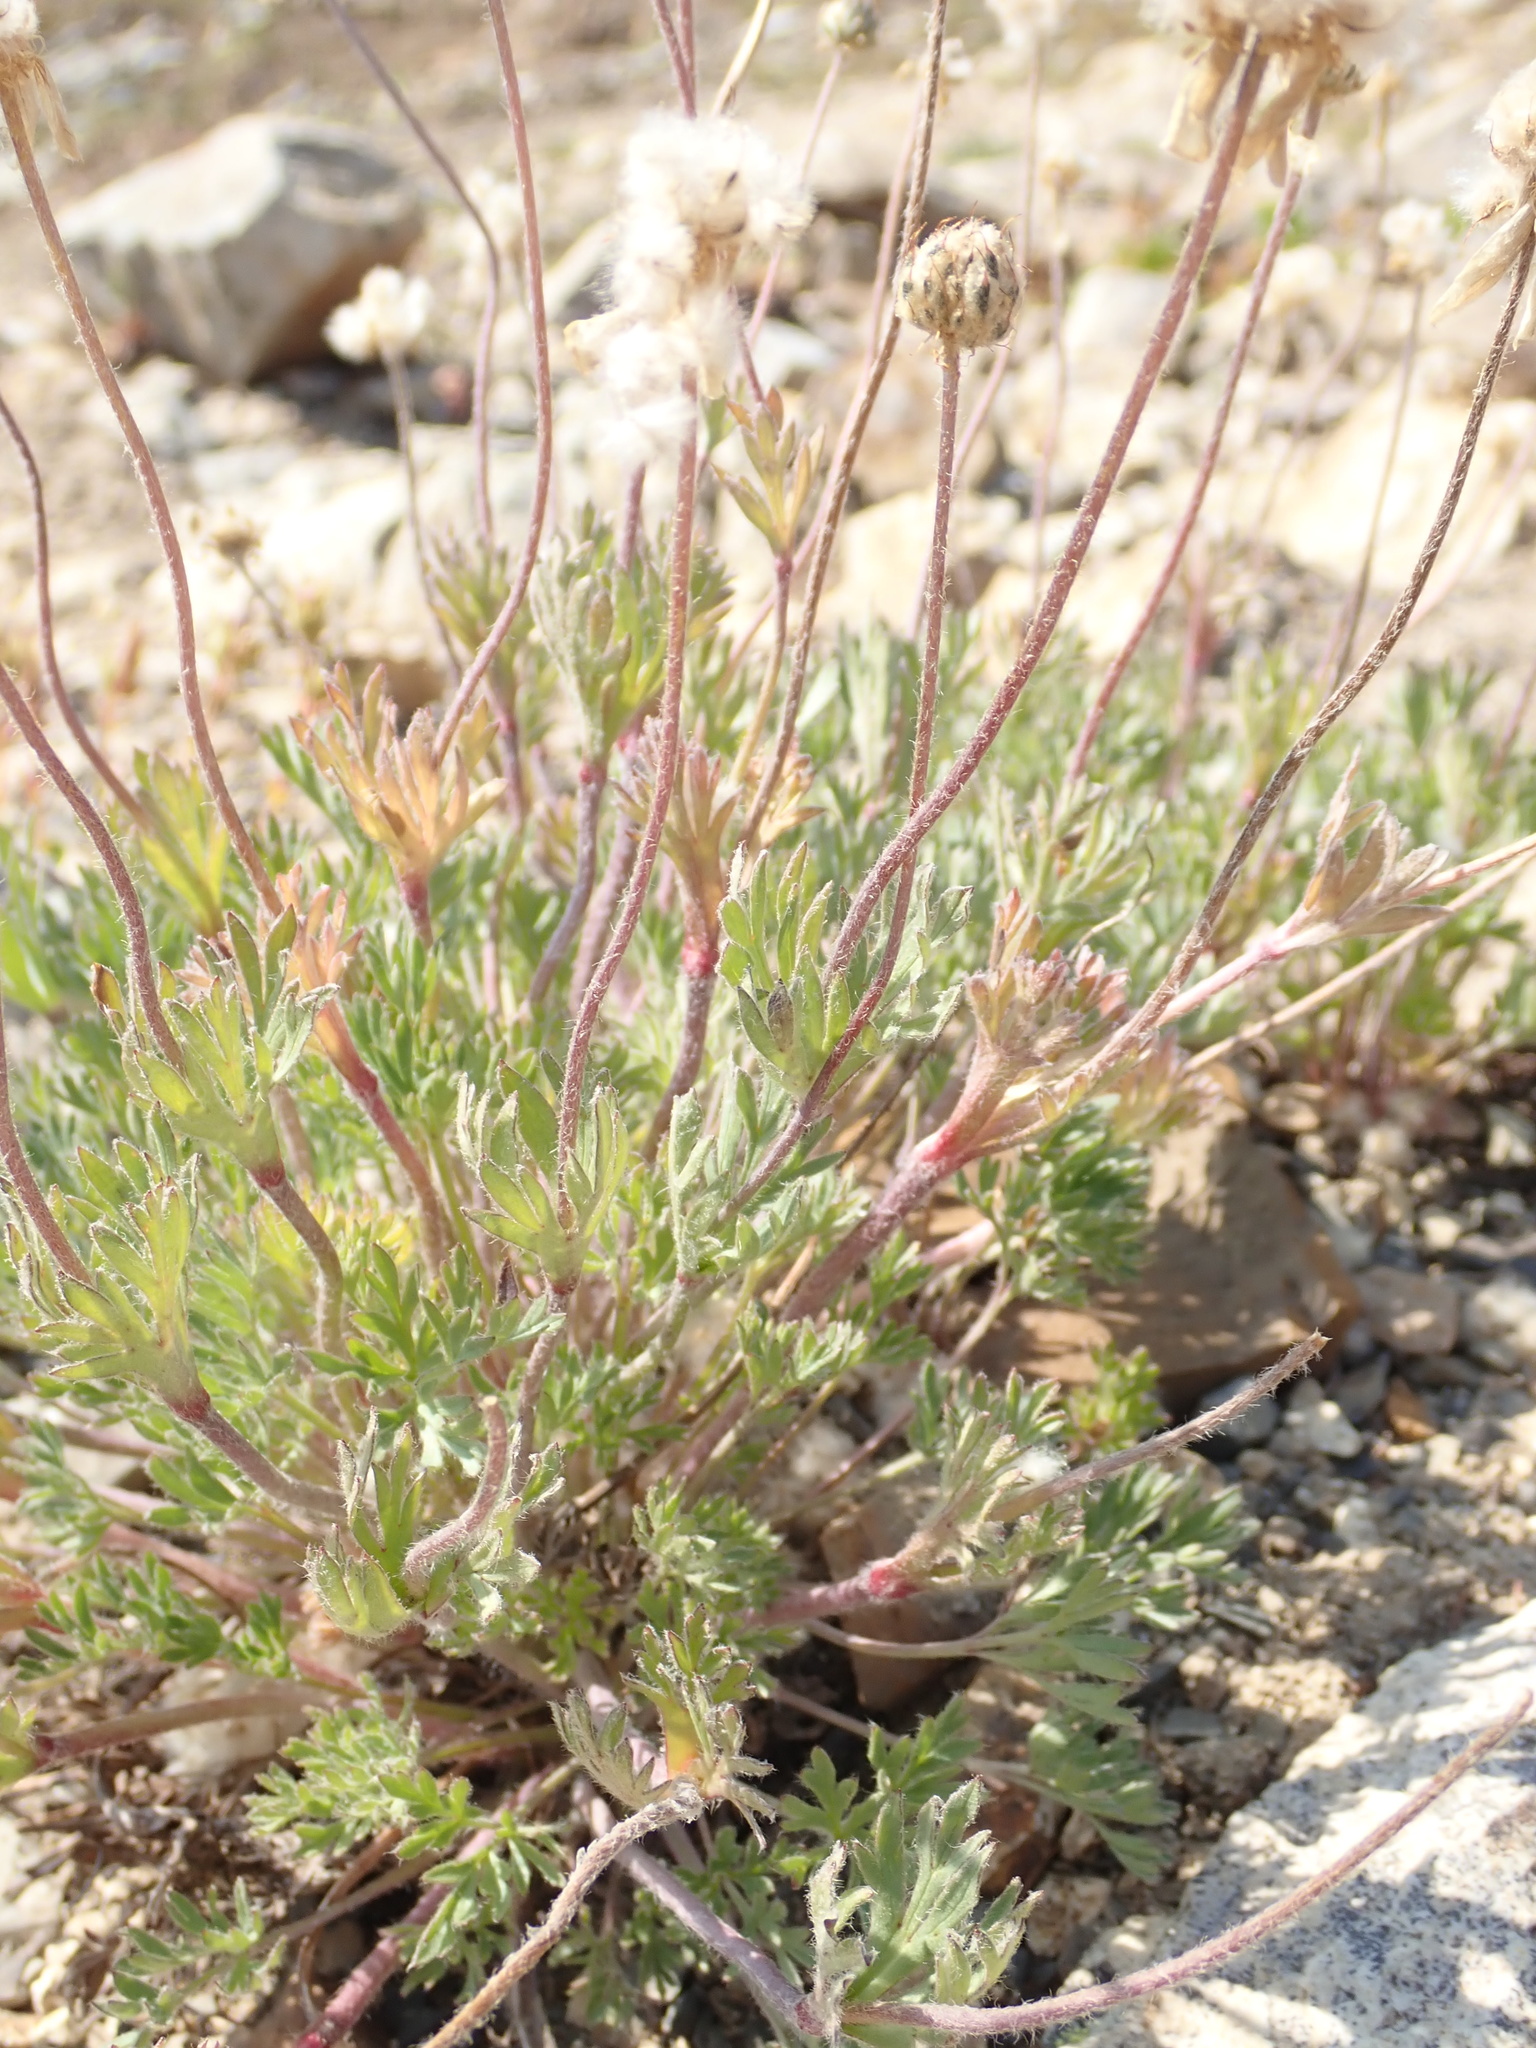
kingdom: Plantae
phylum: Tracheophyta
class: Magnoliopsida
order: Ranunculales
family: Ranunculaceae
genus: Anemone
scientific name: Anemone drummondii
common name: Drummond's anemone
